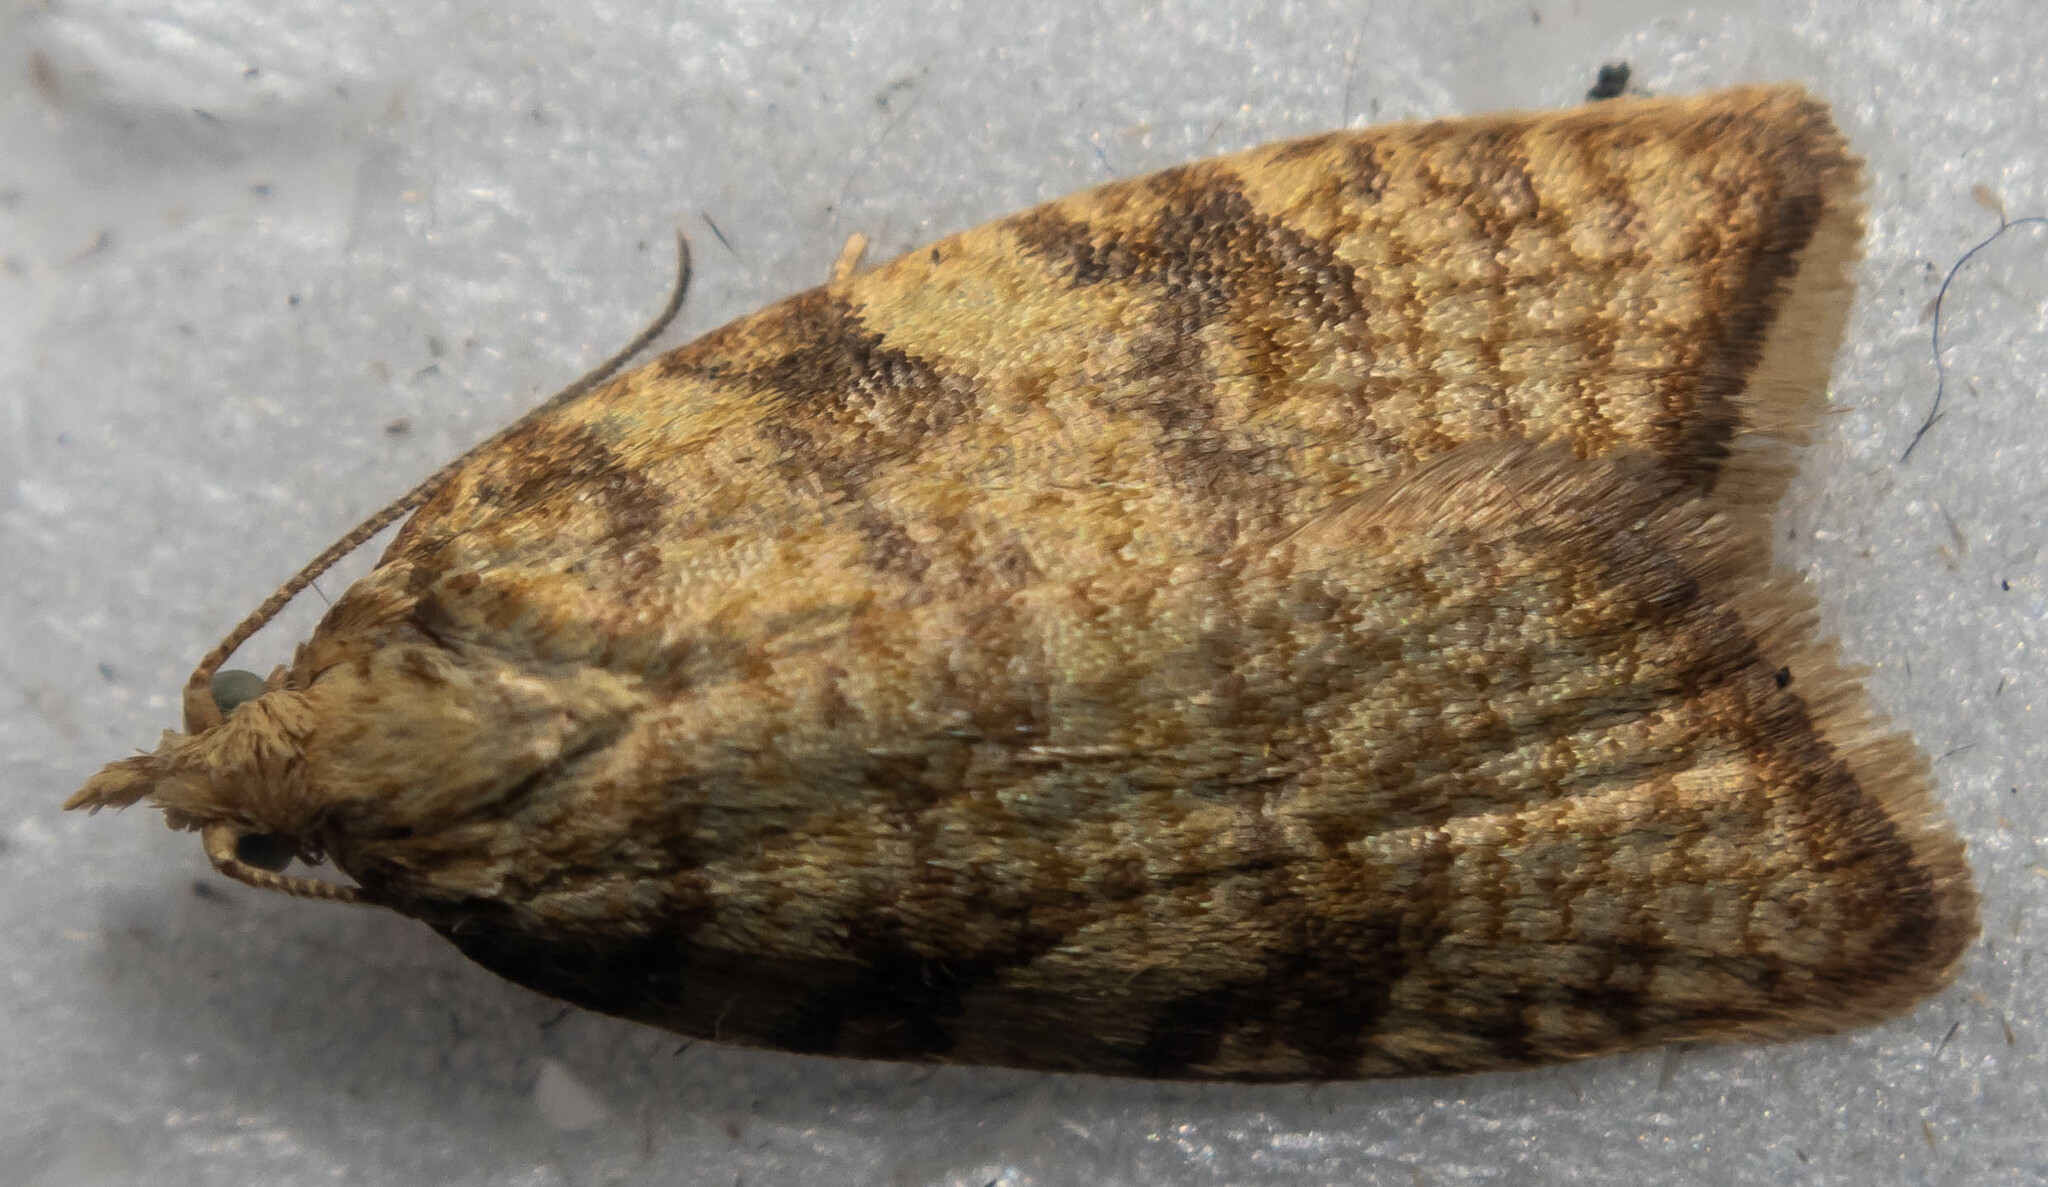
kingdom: Animalia
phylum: Arthropoda
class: Insecta
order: Lepidoptera
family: Tortricidae
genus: Aleimma
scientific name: Aleimma loeflingiana
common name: Yellow oak button
